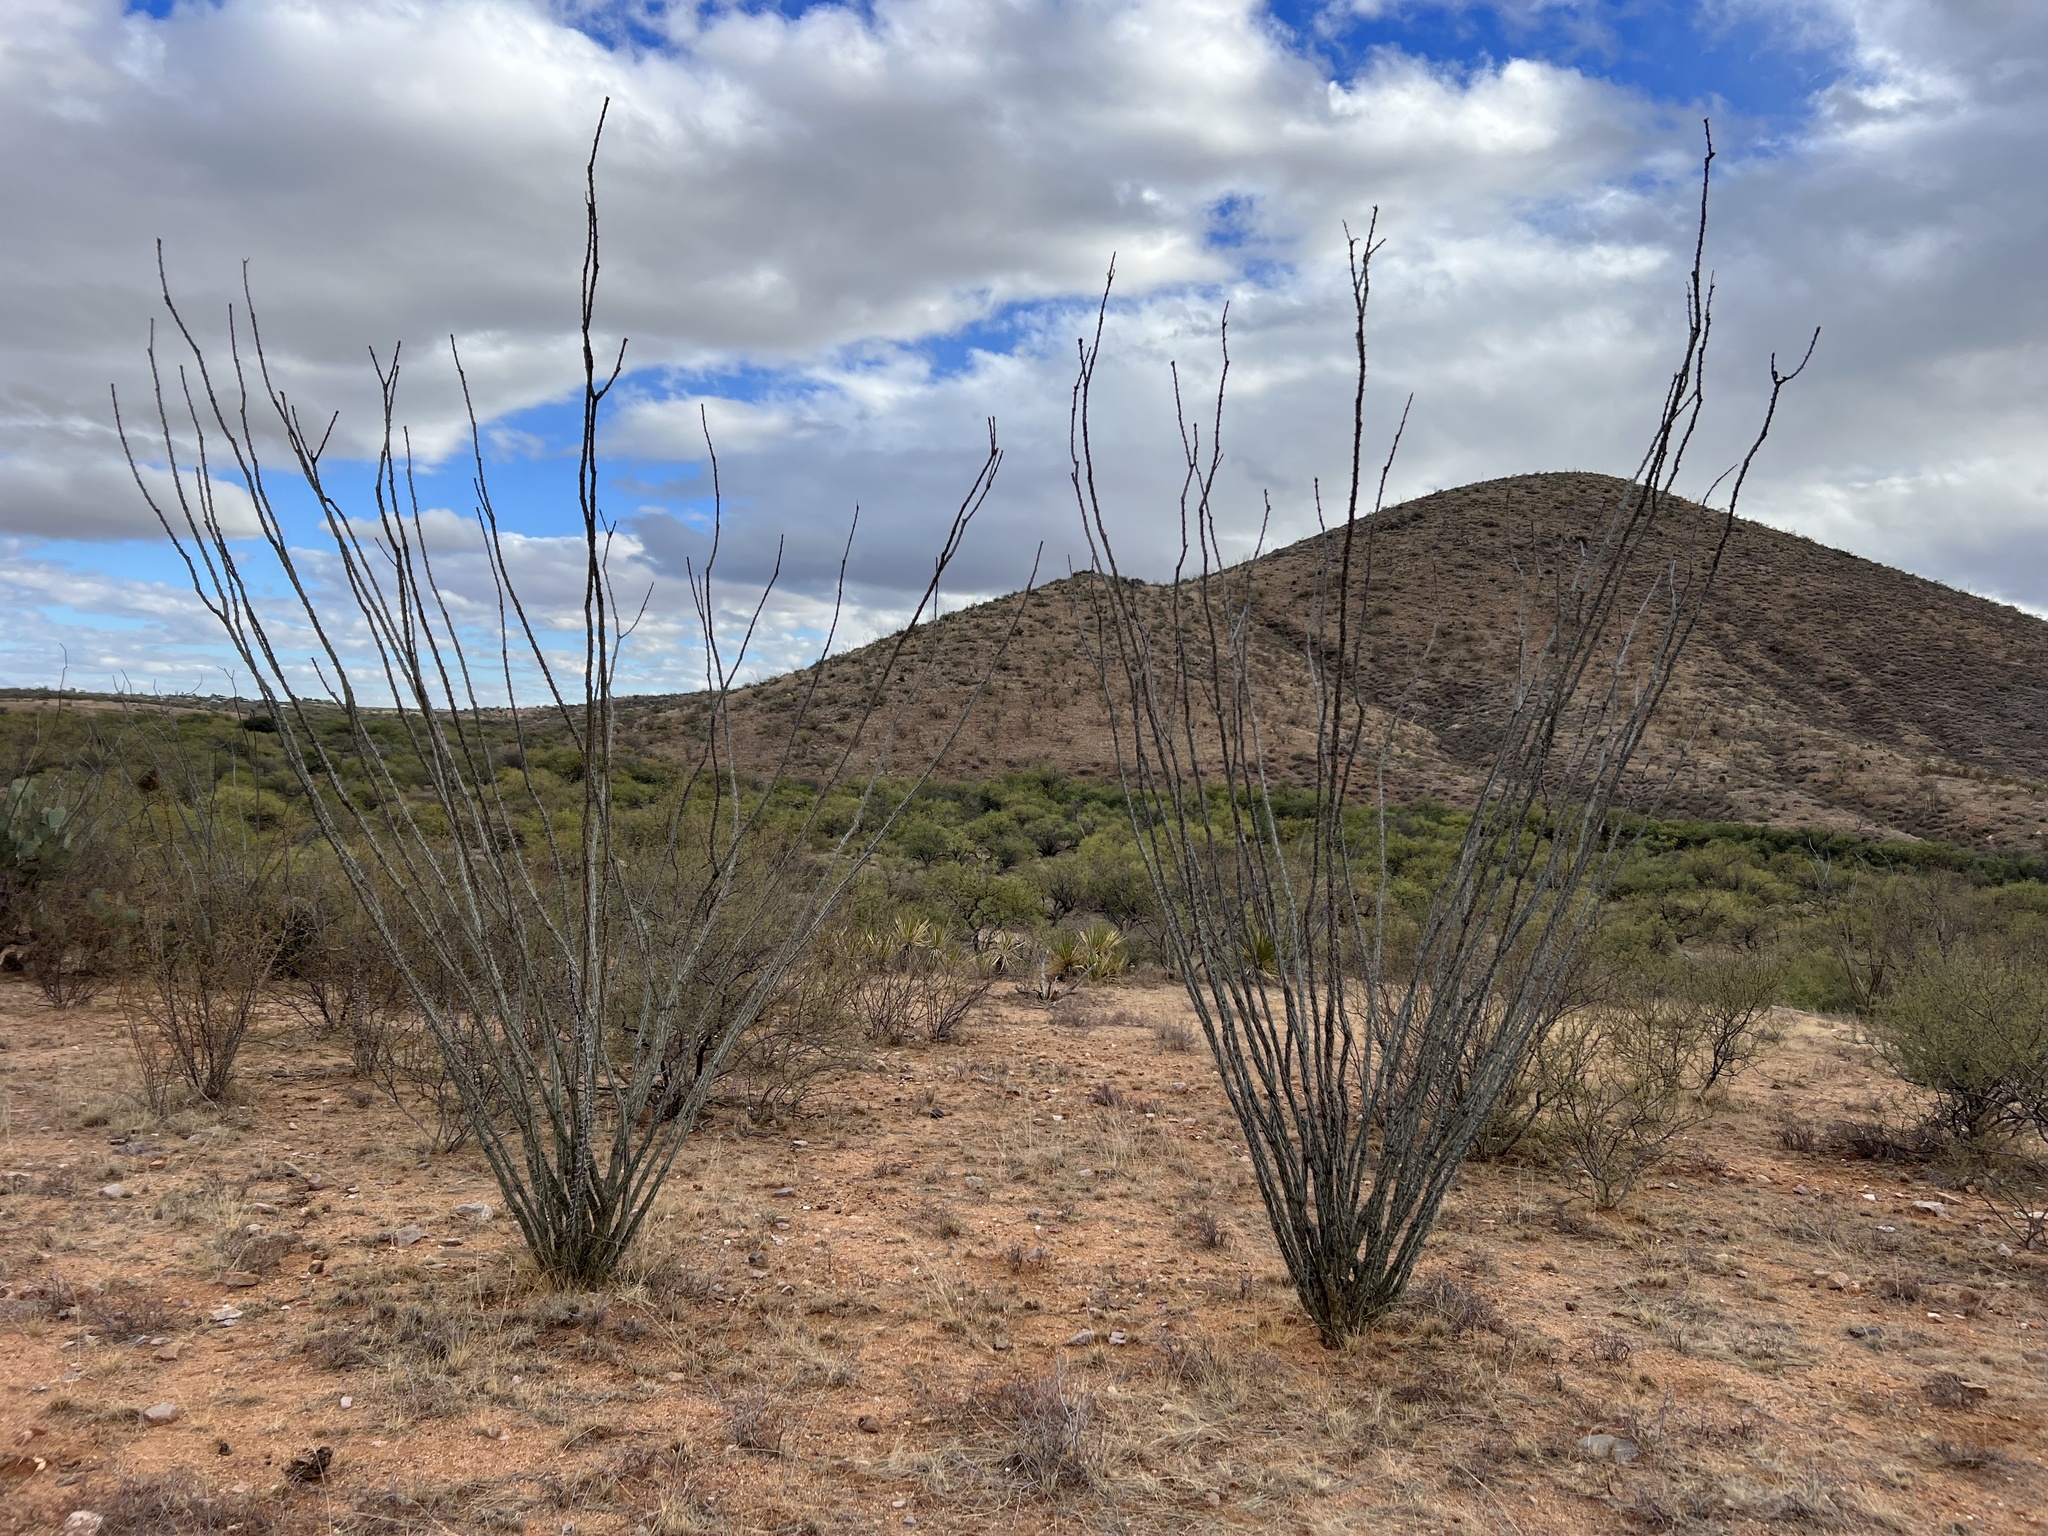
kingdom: Plantae
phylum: Tracheophyta
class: Magnoliopsida
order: Ericales
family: Fouquieriaceae
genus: Fouquieria
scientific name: Fouquieria splendens
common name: Vine-cactus
